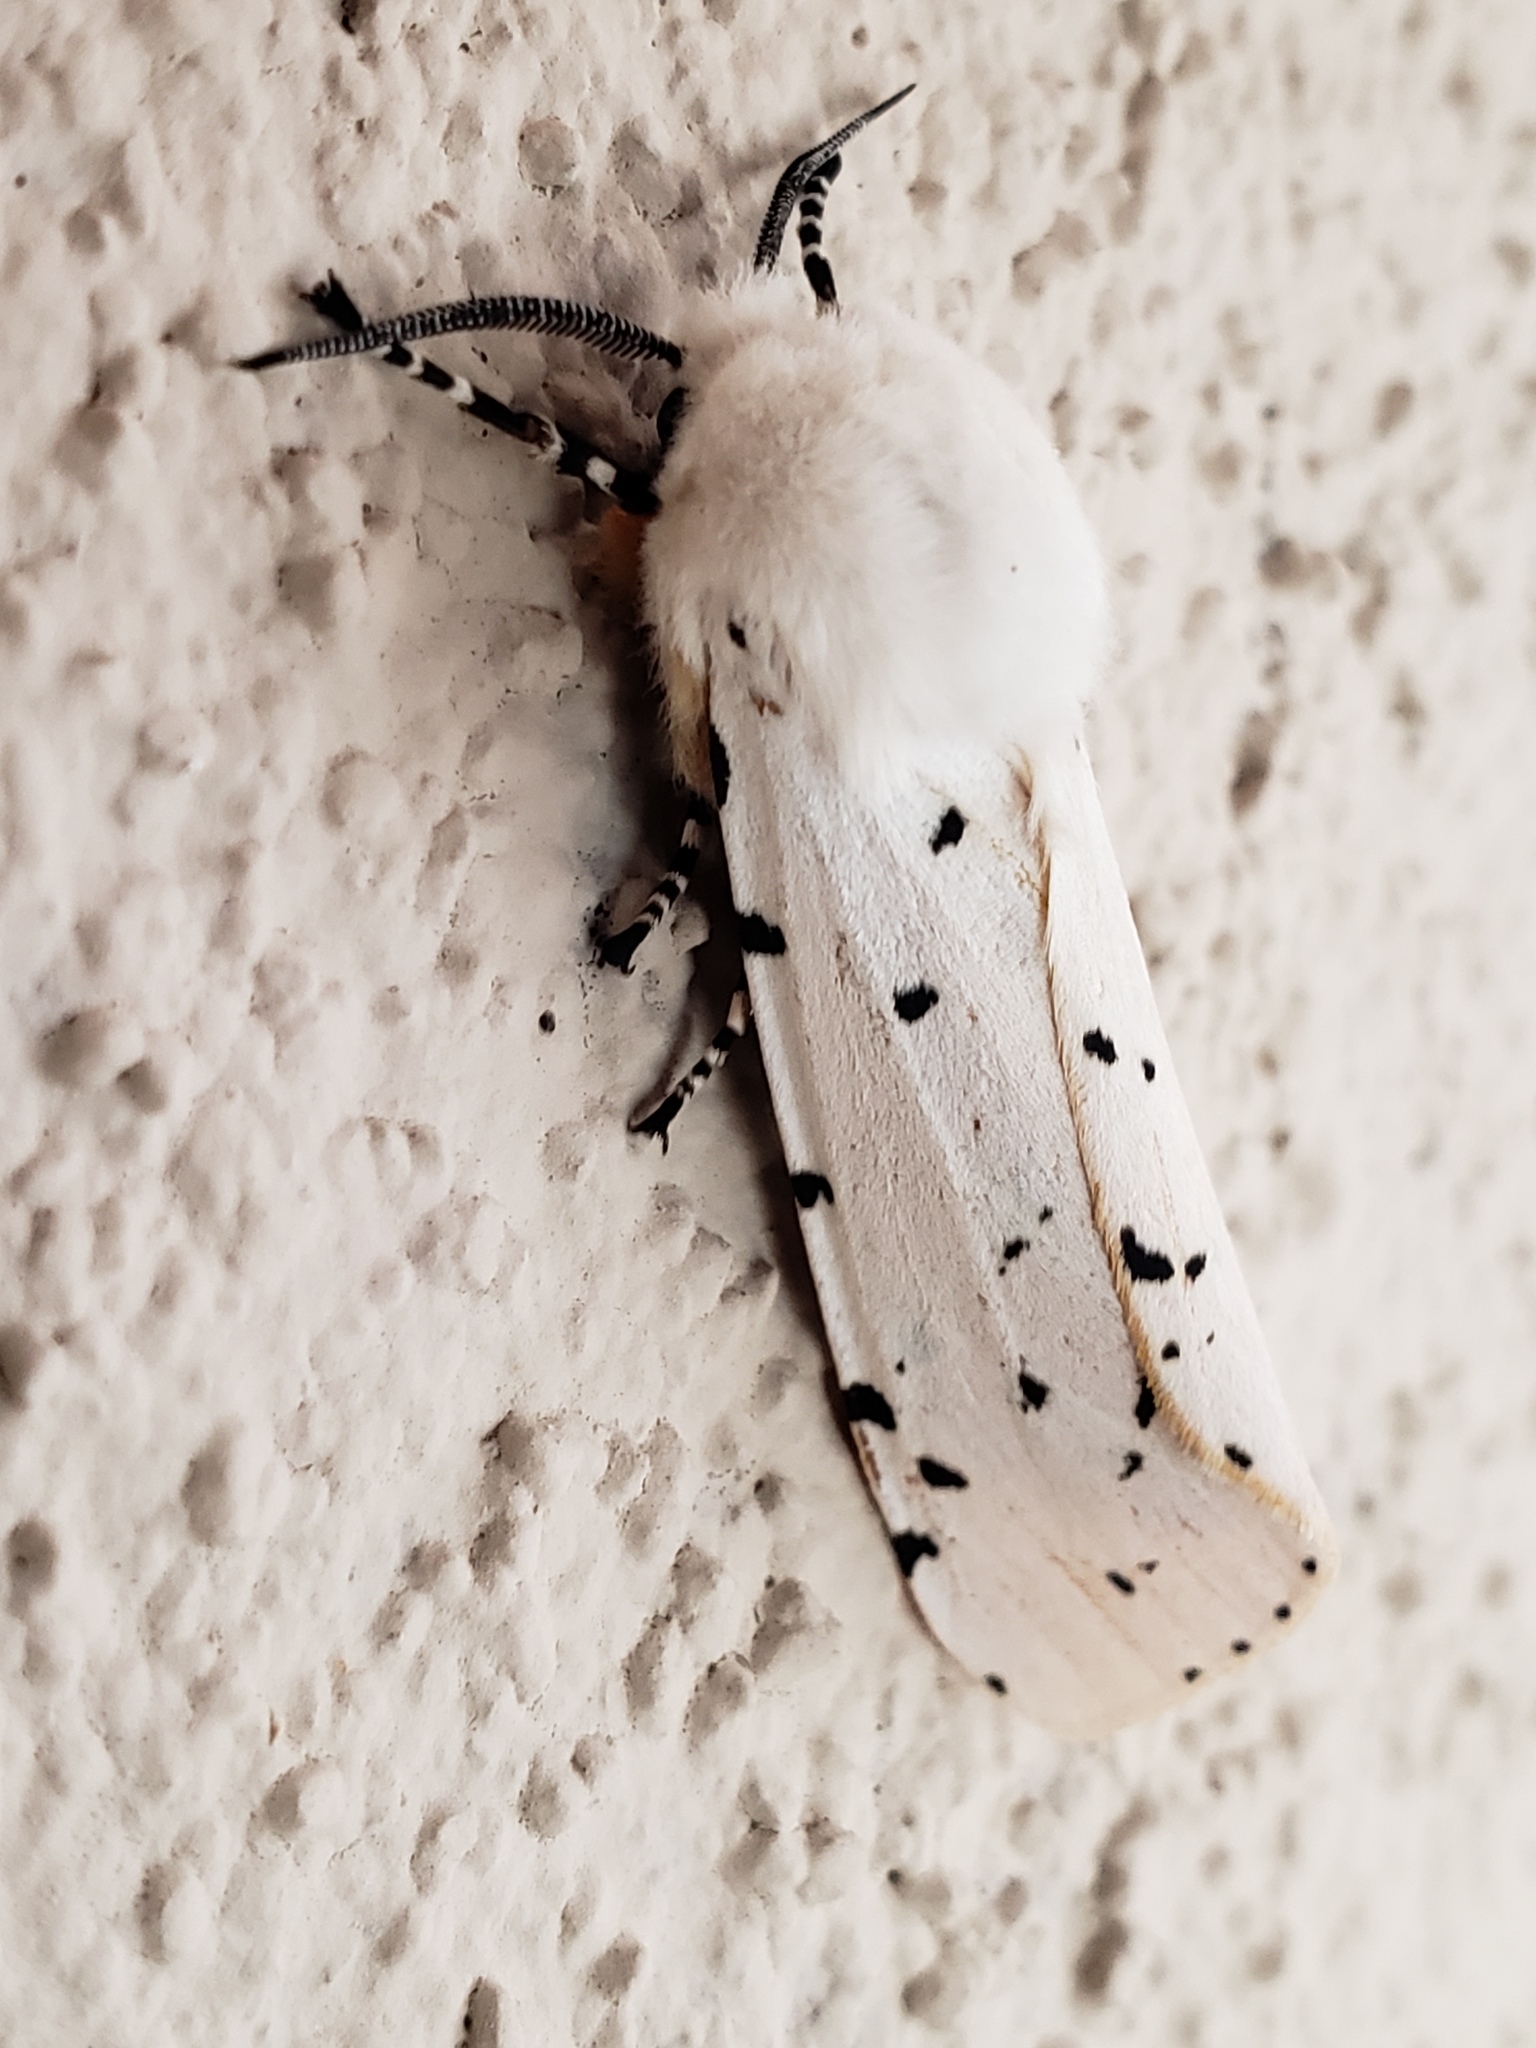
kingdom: Animalia
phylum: Arthropoda
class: Insecta
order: Lepidoptera
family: Erebidae
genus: Estigmene
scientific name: Estigmene acrea
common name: Salt marsh moth
